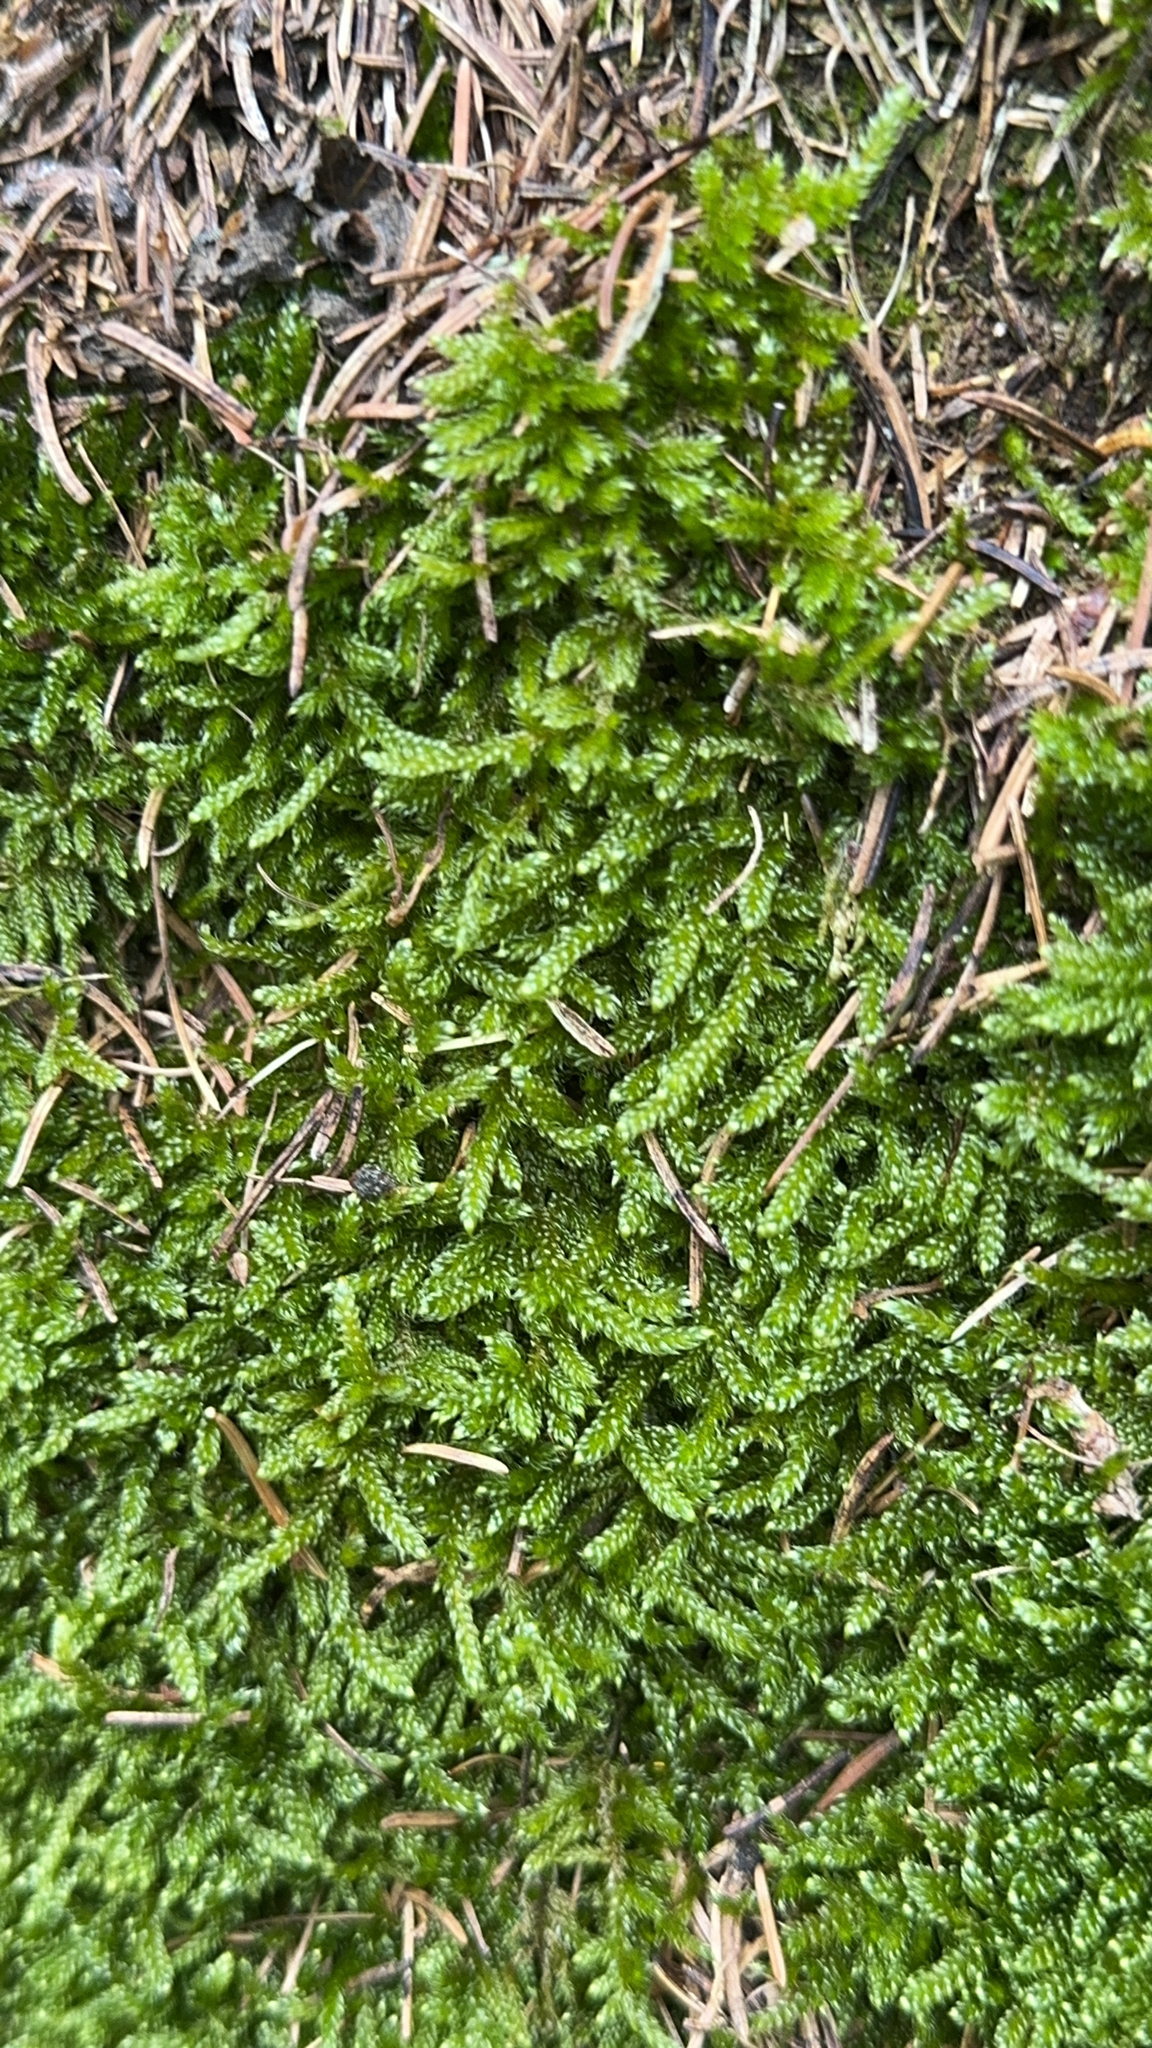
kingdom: Plantae
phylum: Bryophyta
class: Bryopsida
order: Hypnales
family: Hypnaceae
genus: Hypnum
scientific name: Hypnum cupressiforme
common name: Cypress-leaved plait-moss
